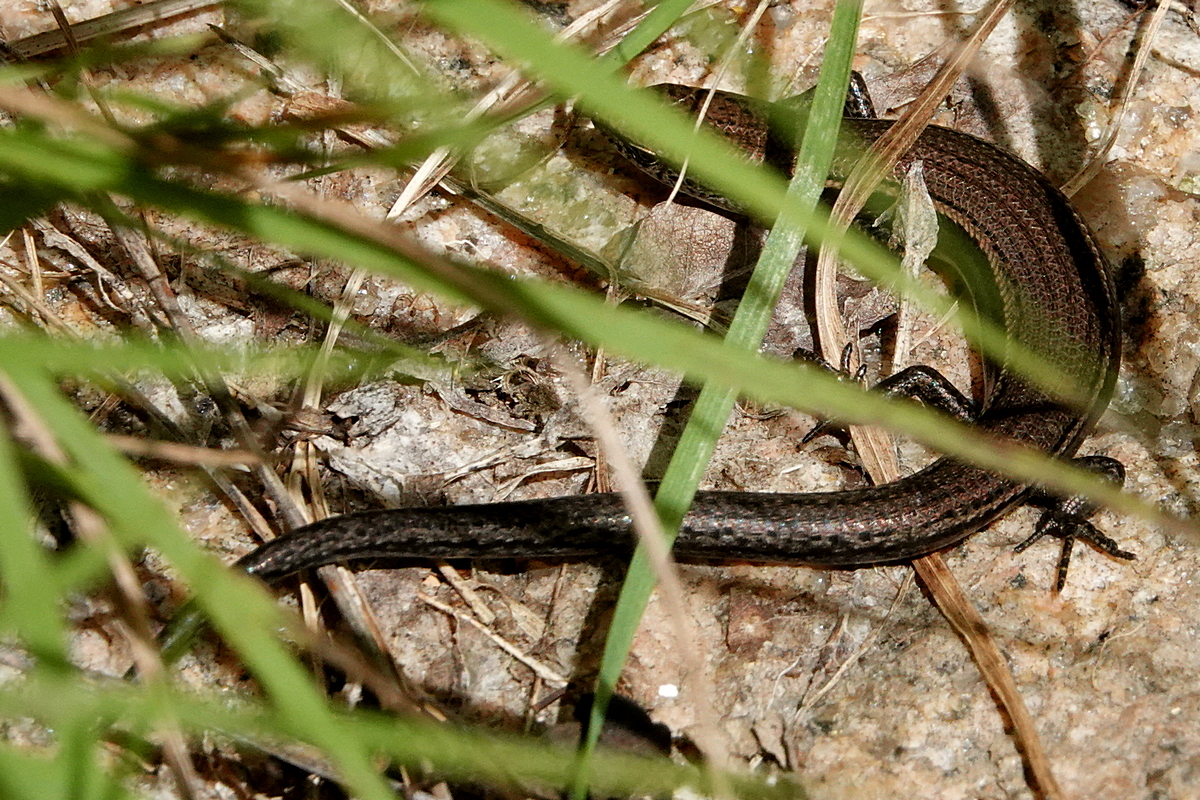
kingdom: Animalia
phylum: Chordata
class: Squamata
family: Scincidae
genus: Lampropholis
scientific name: Lampropholis delicata
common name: Plague skink
